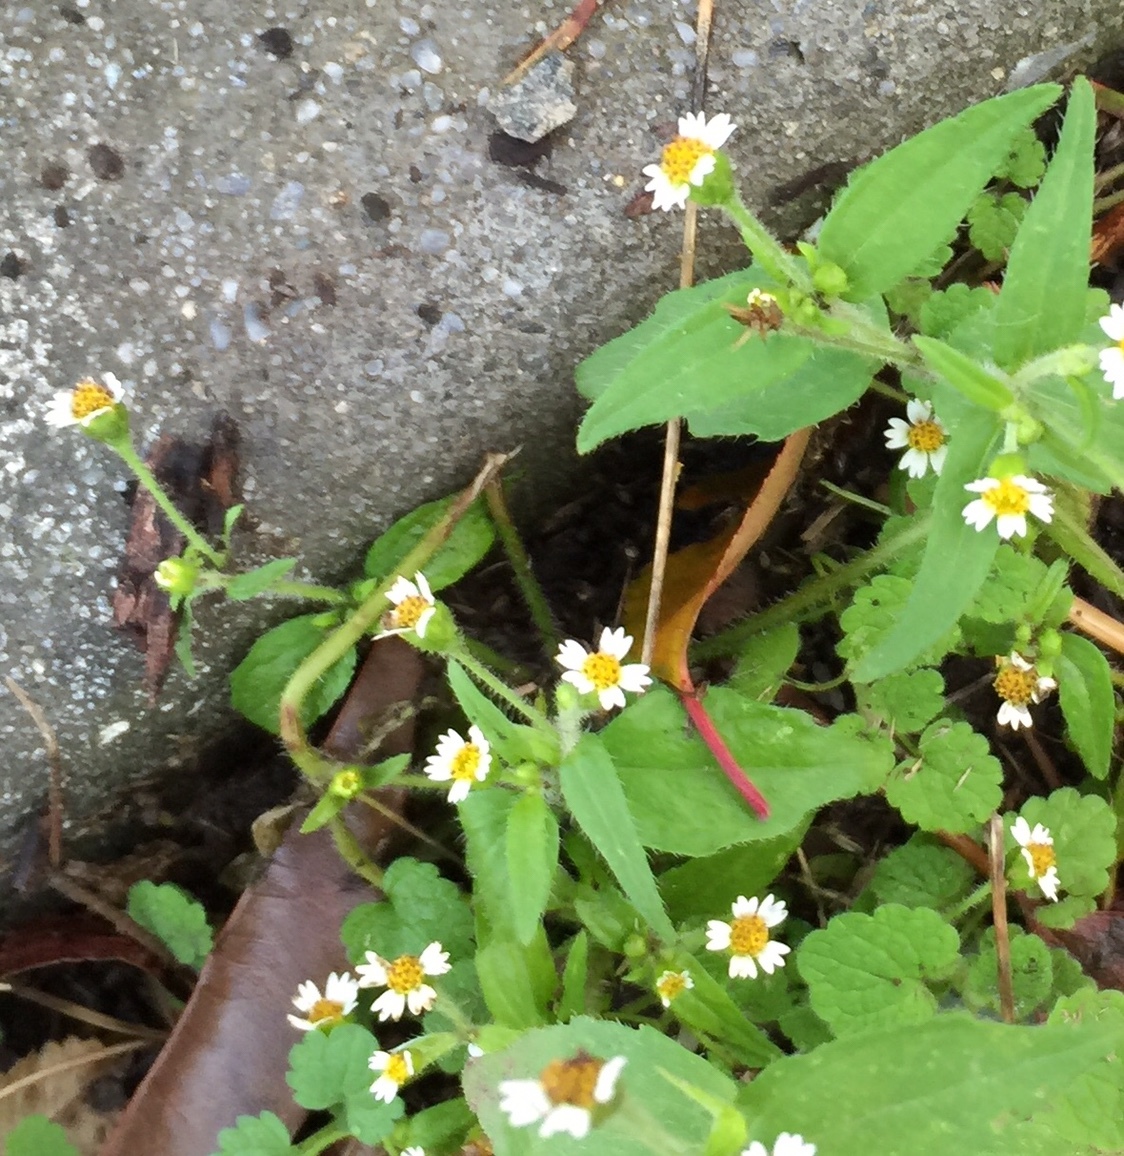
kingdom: Plantae
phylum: Tracheophyta
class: Magnoliopsida
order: Asterales
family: Asteraceae
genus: Galinsoga
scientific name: Galinsoga quadriradiata
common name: Shaggy soldier
